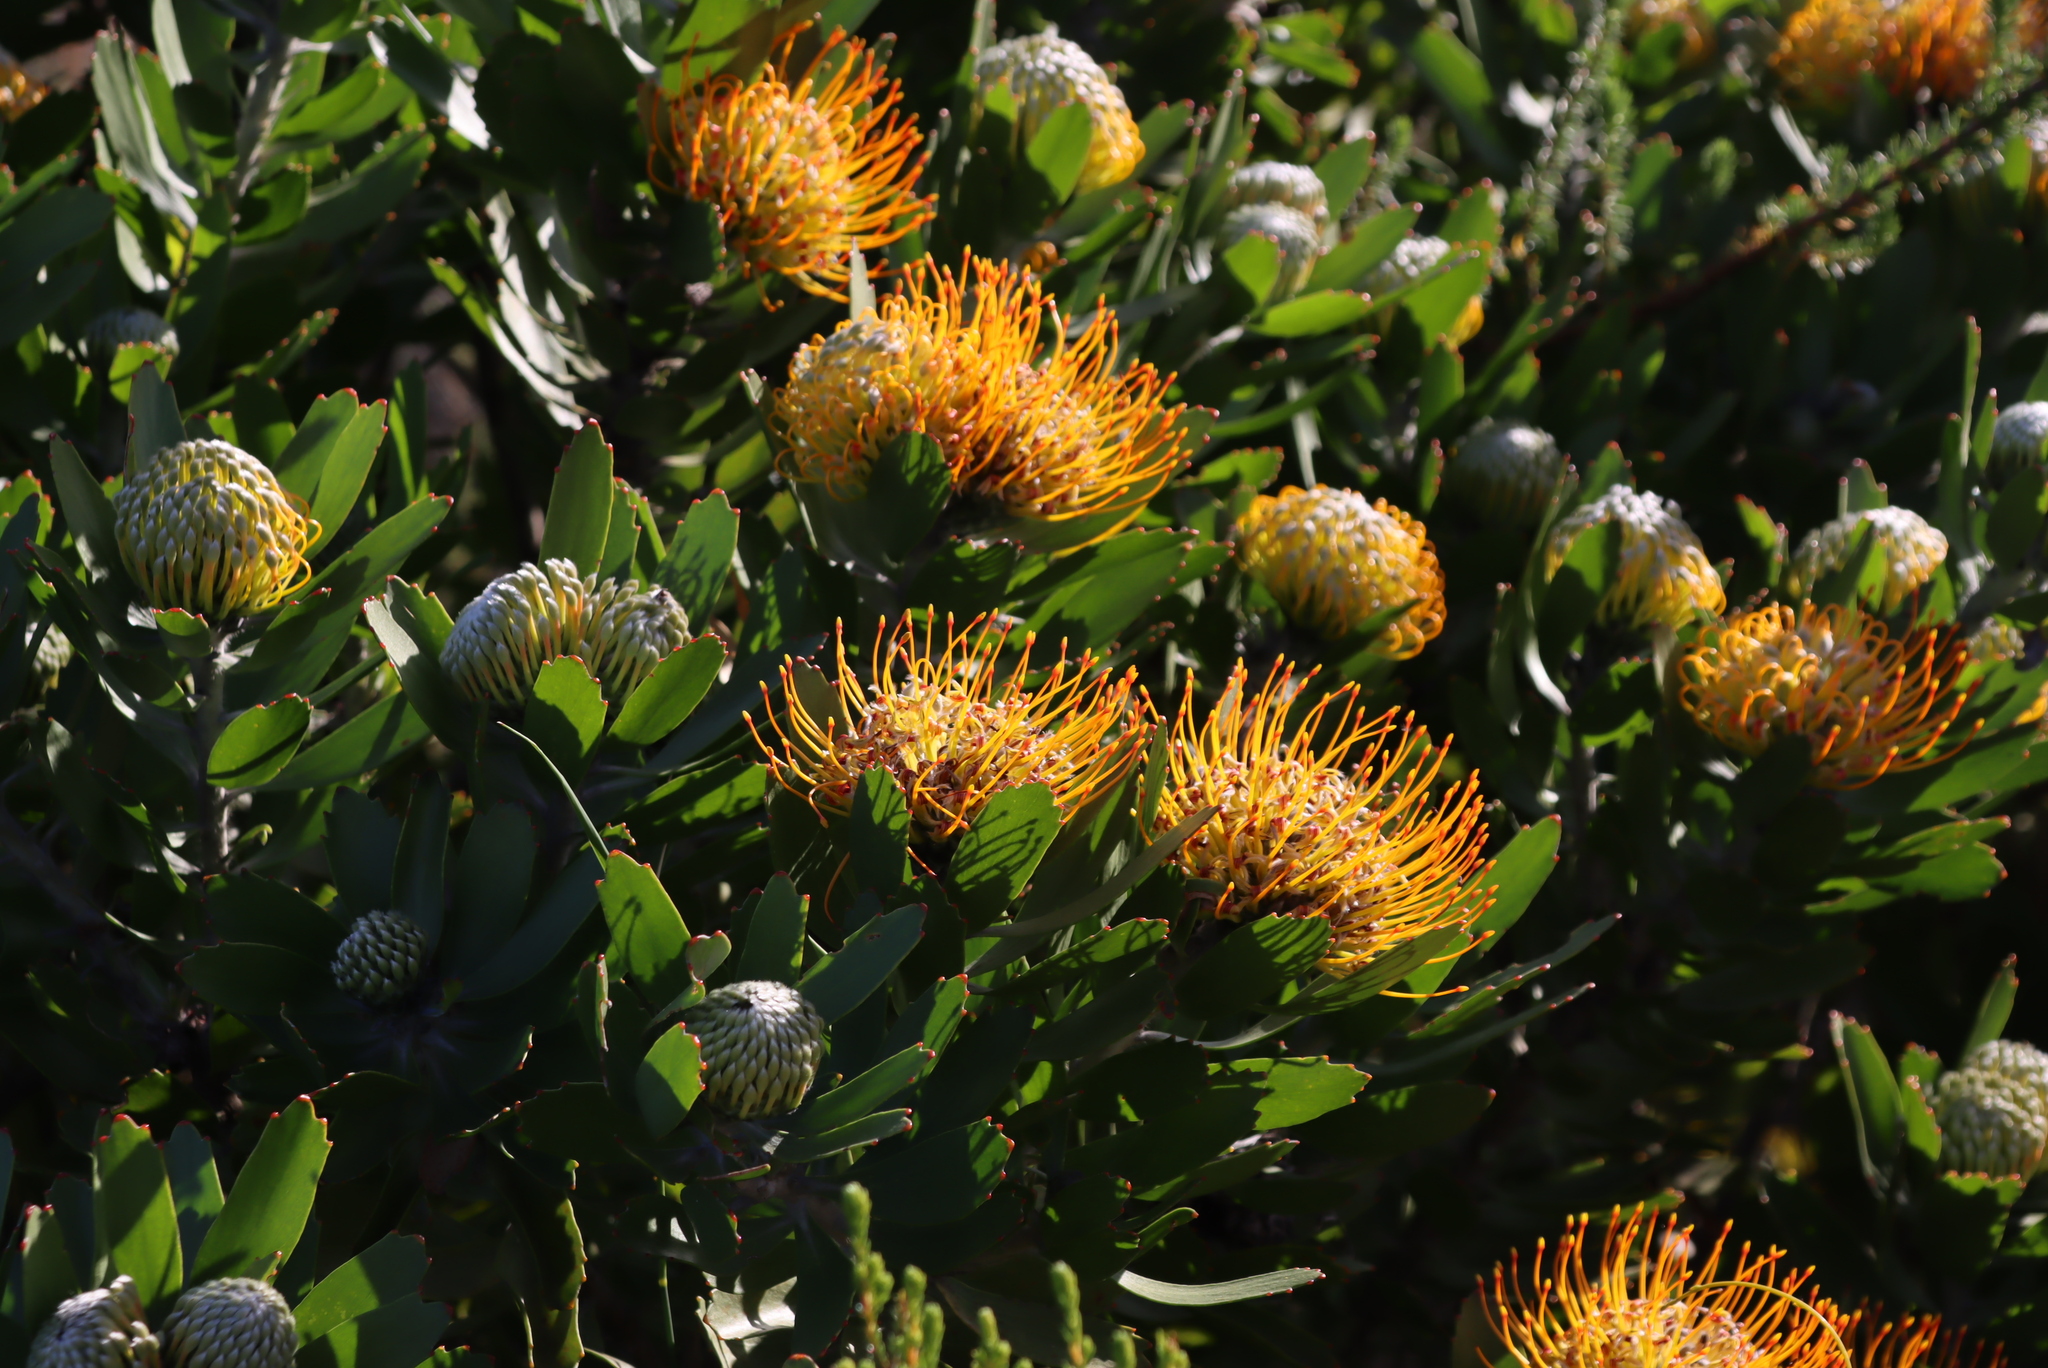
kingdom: Plantae
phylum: Tracheophyta
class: Magnoliopsida
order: Proteales
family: Proteaceae
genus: Leucospermum
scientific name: Leucospermum praecox
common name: Mossel bay pincushion
